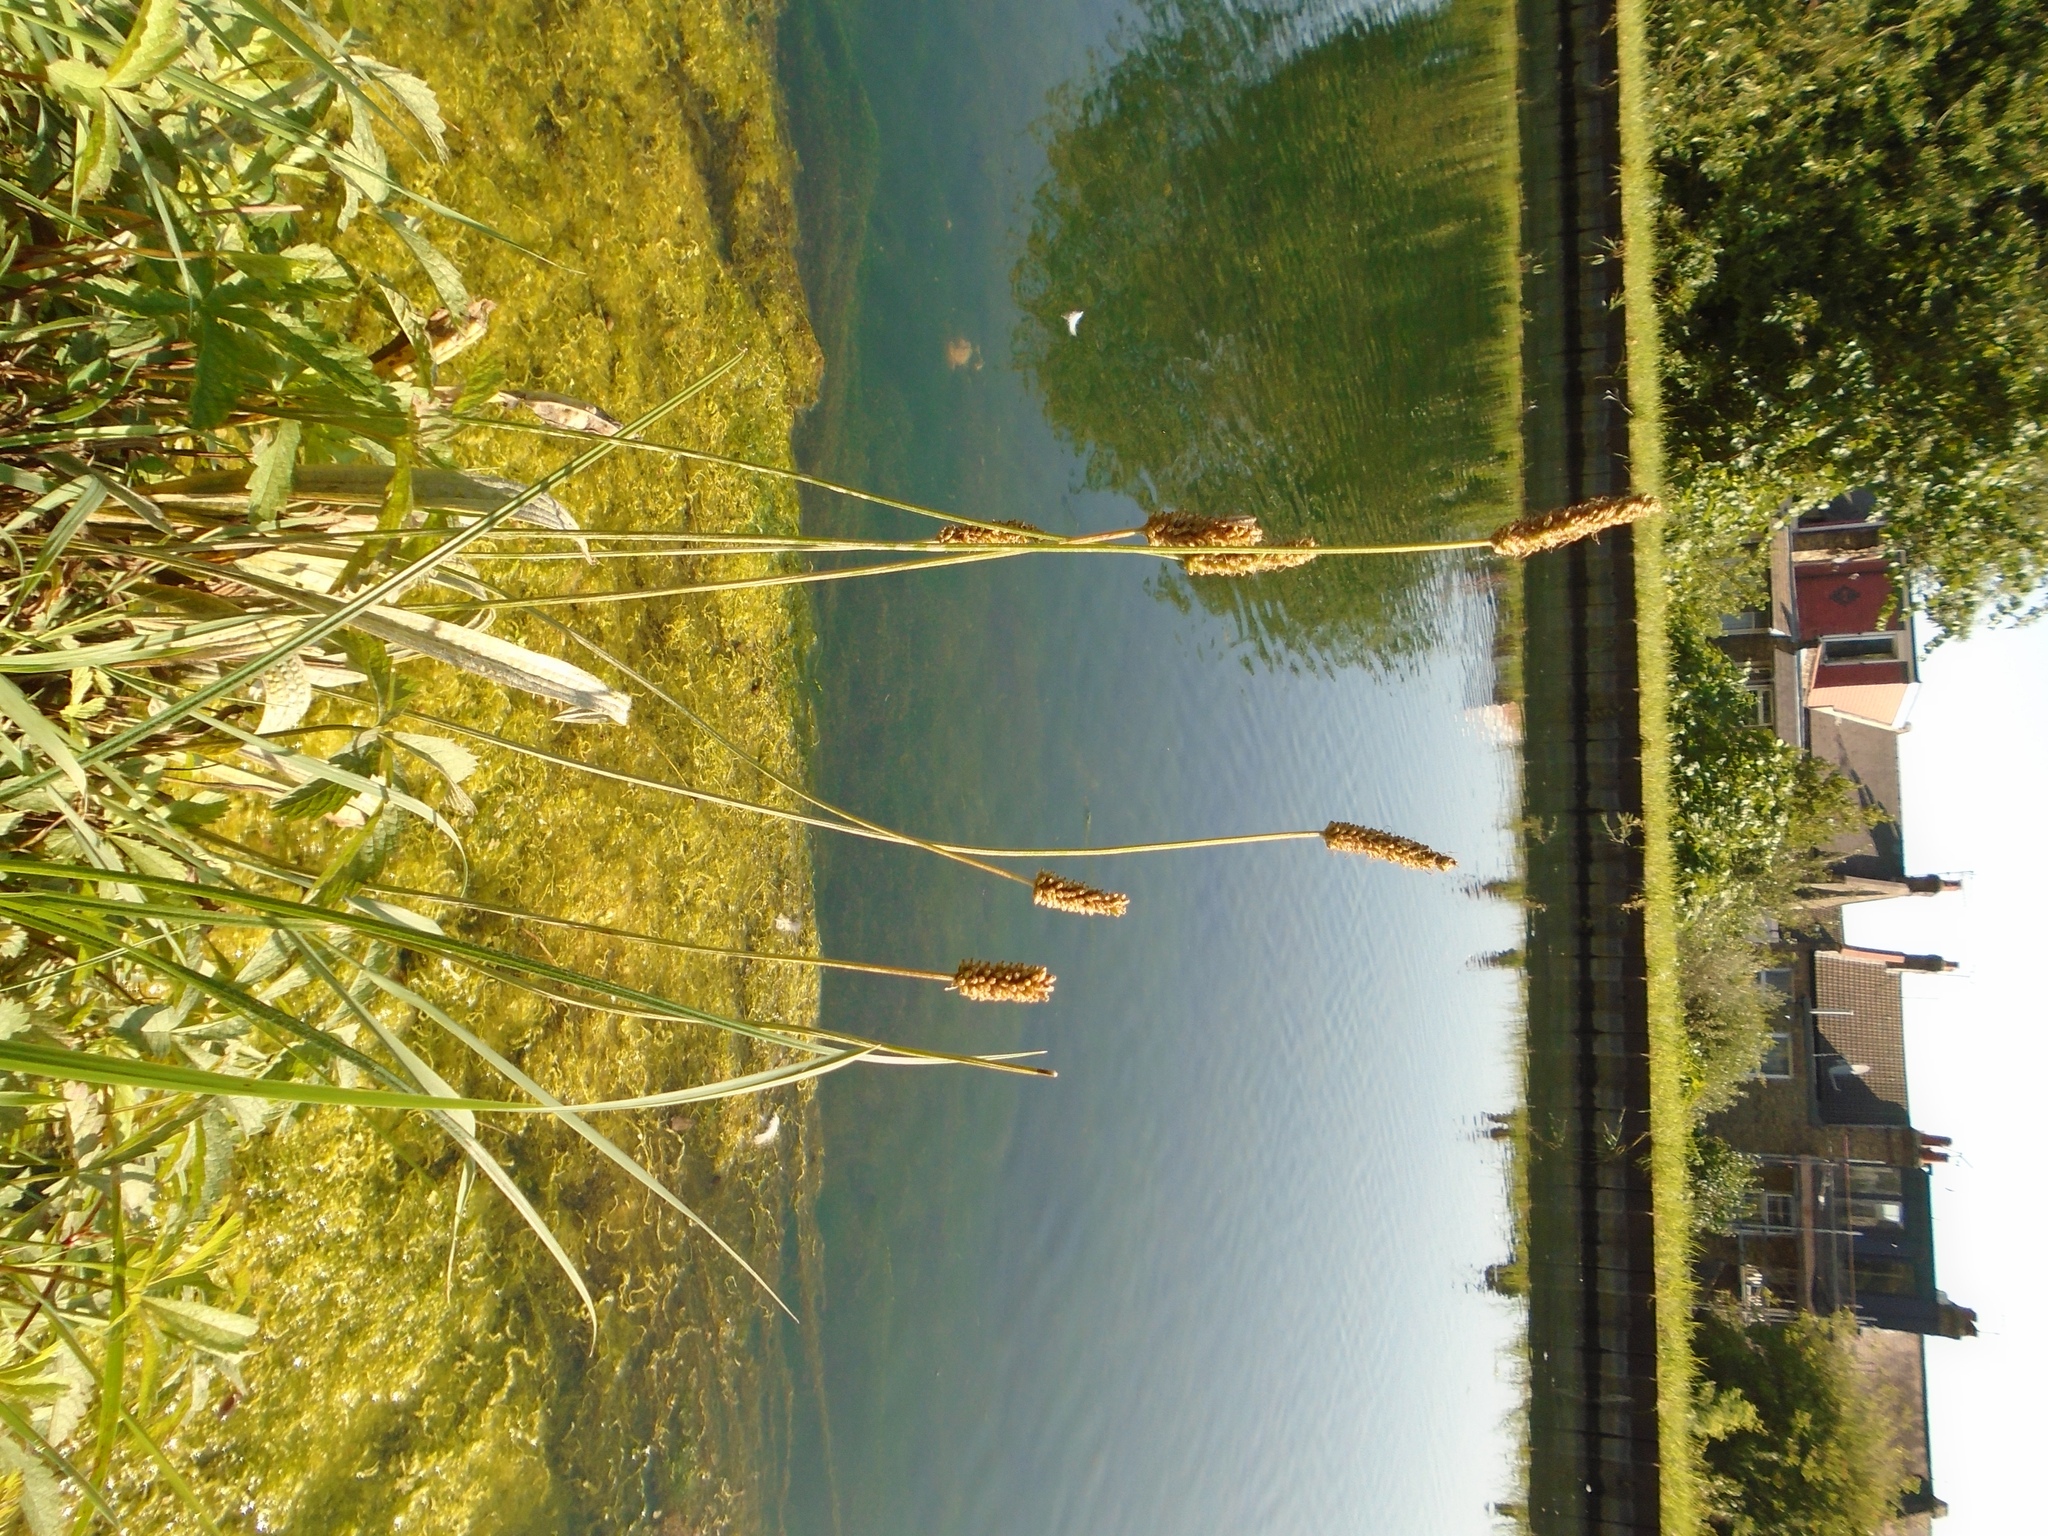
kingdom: Plantae
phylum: Tracheophyta
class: Magnoliopsida
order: Lamiales
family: Plantaginaceae
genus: Plantago
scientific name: Plantago lanceolata
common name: Ribwort plantain
